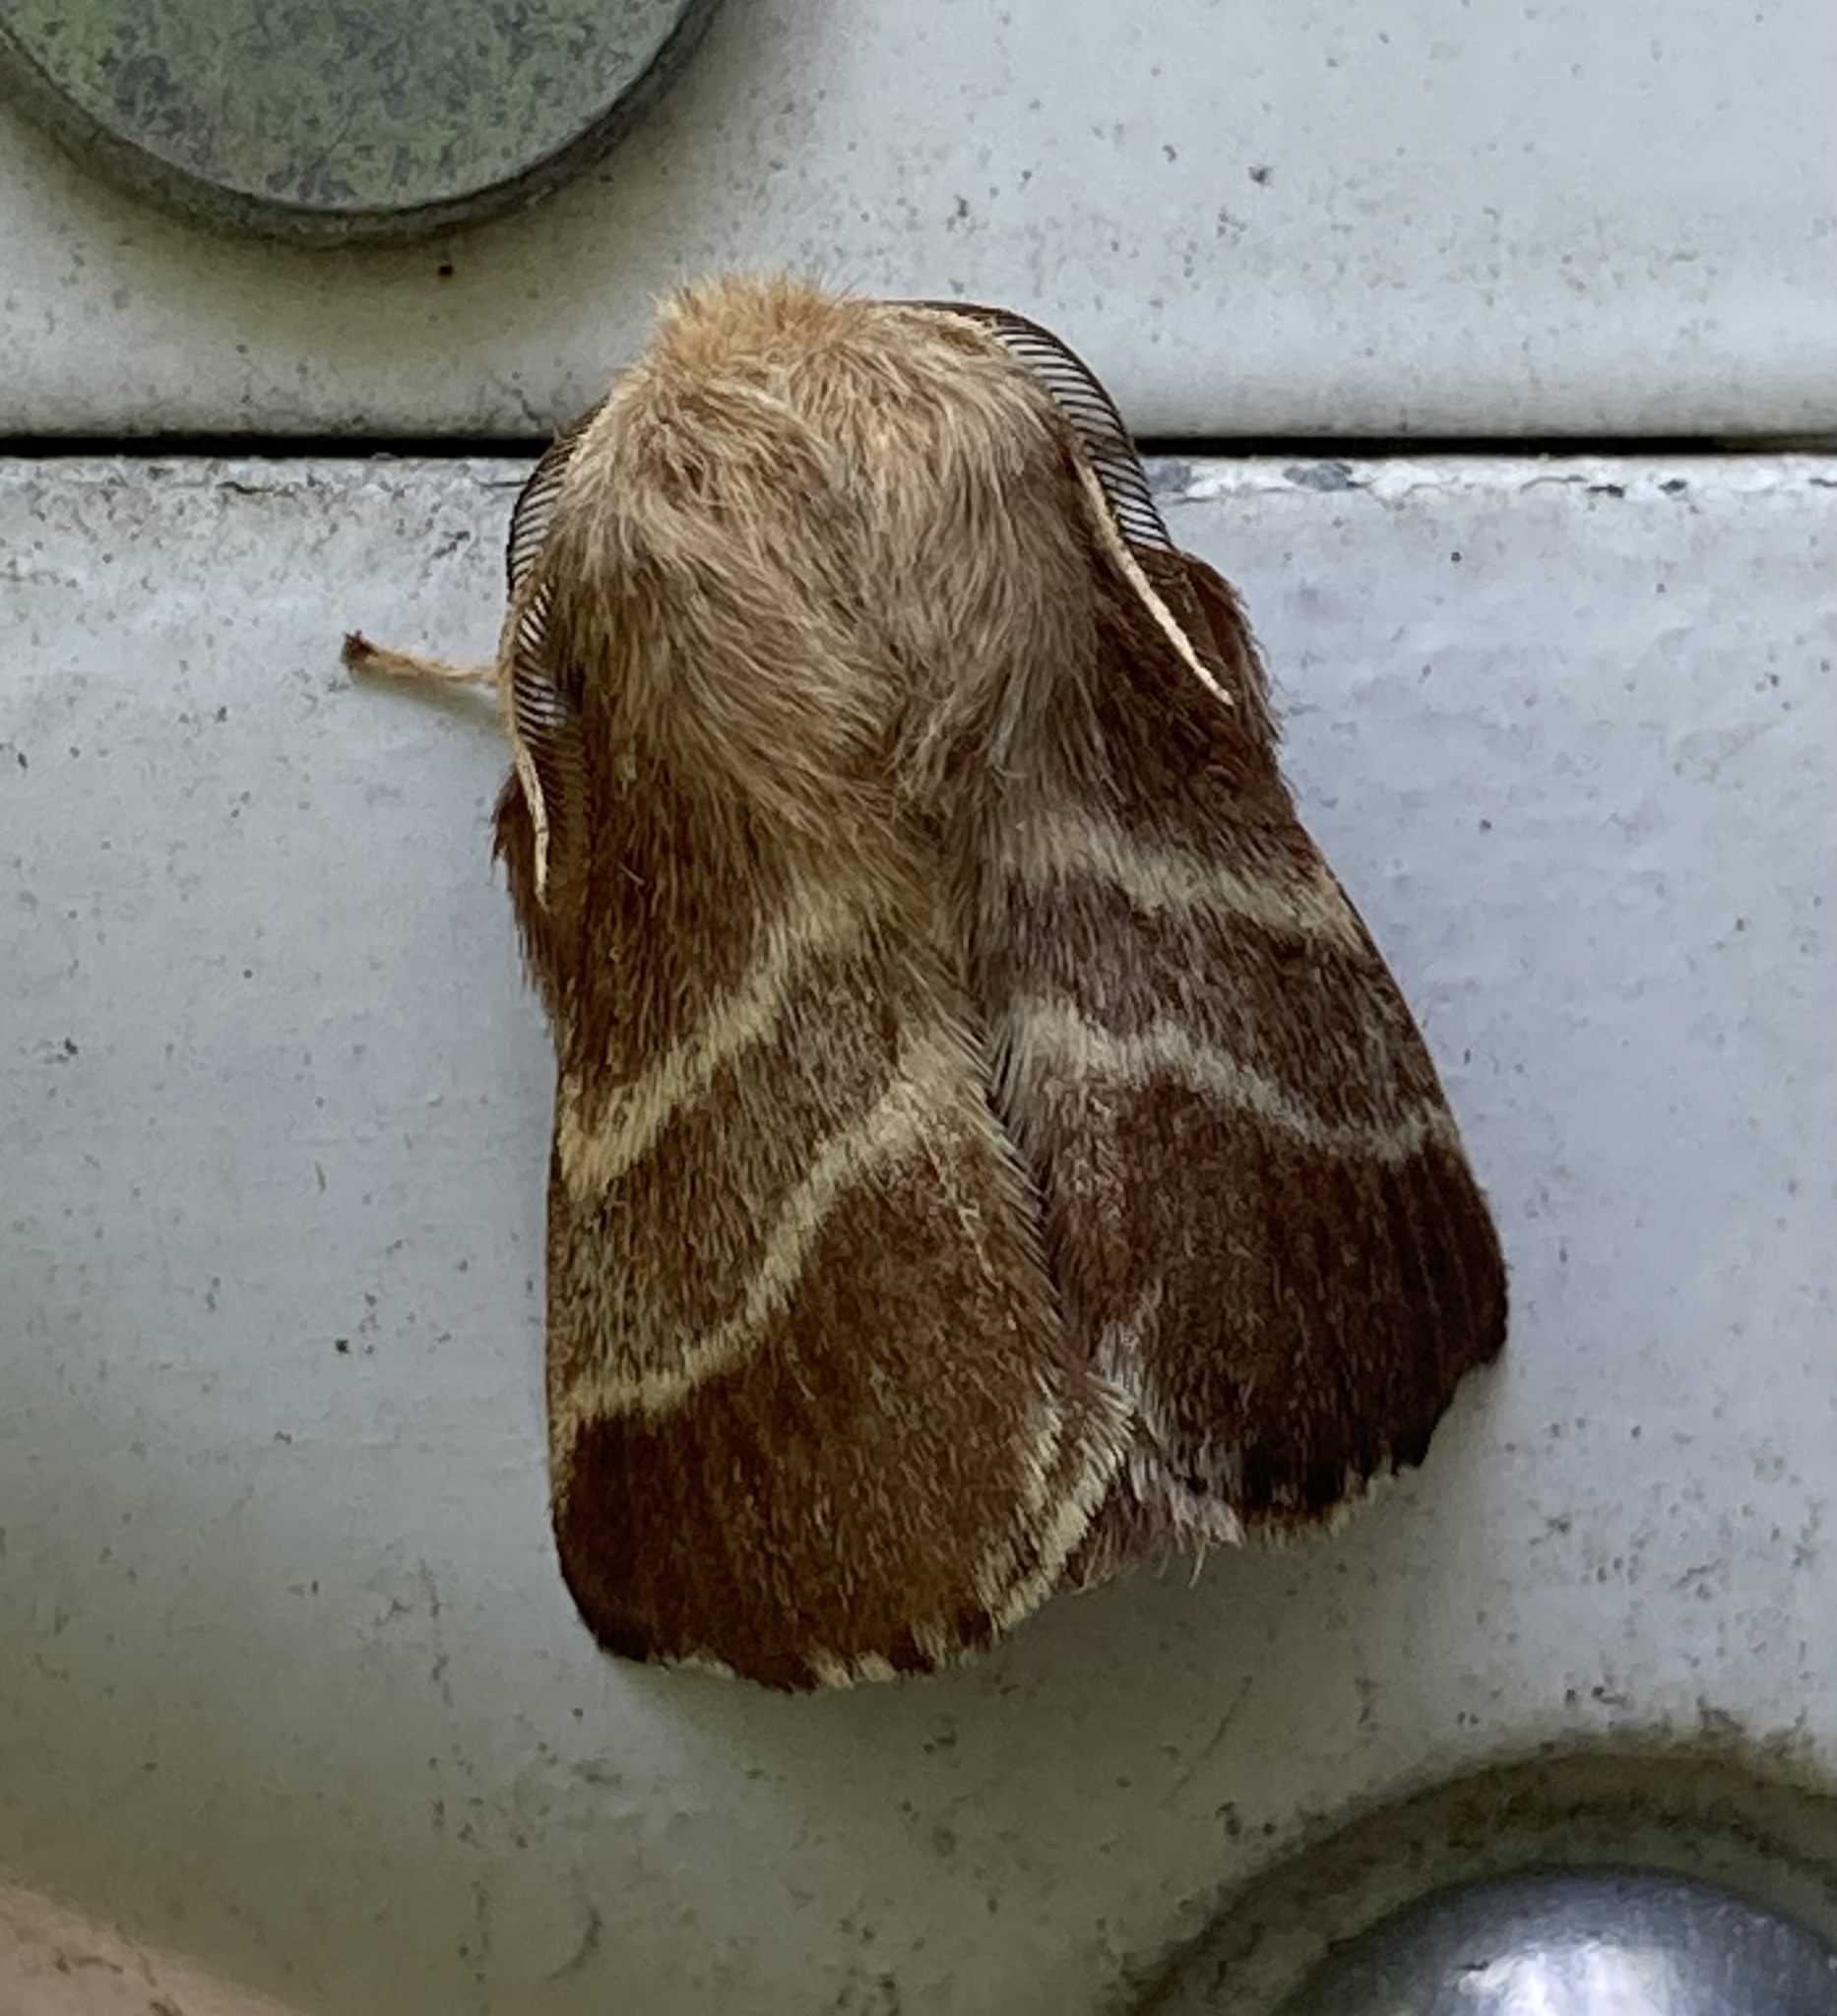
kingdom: Animalia
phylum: Arthropoda
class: Insecta
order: Lepidoptera
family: Lasiocampidae
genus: Malacosoma
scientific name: Malacosoma americana
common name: Eastern tent caterpillar moth
